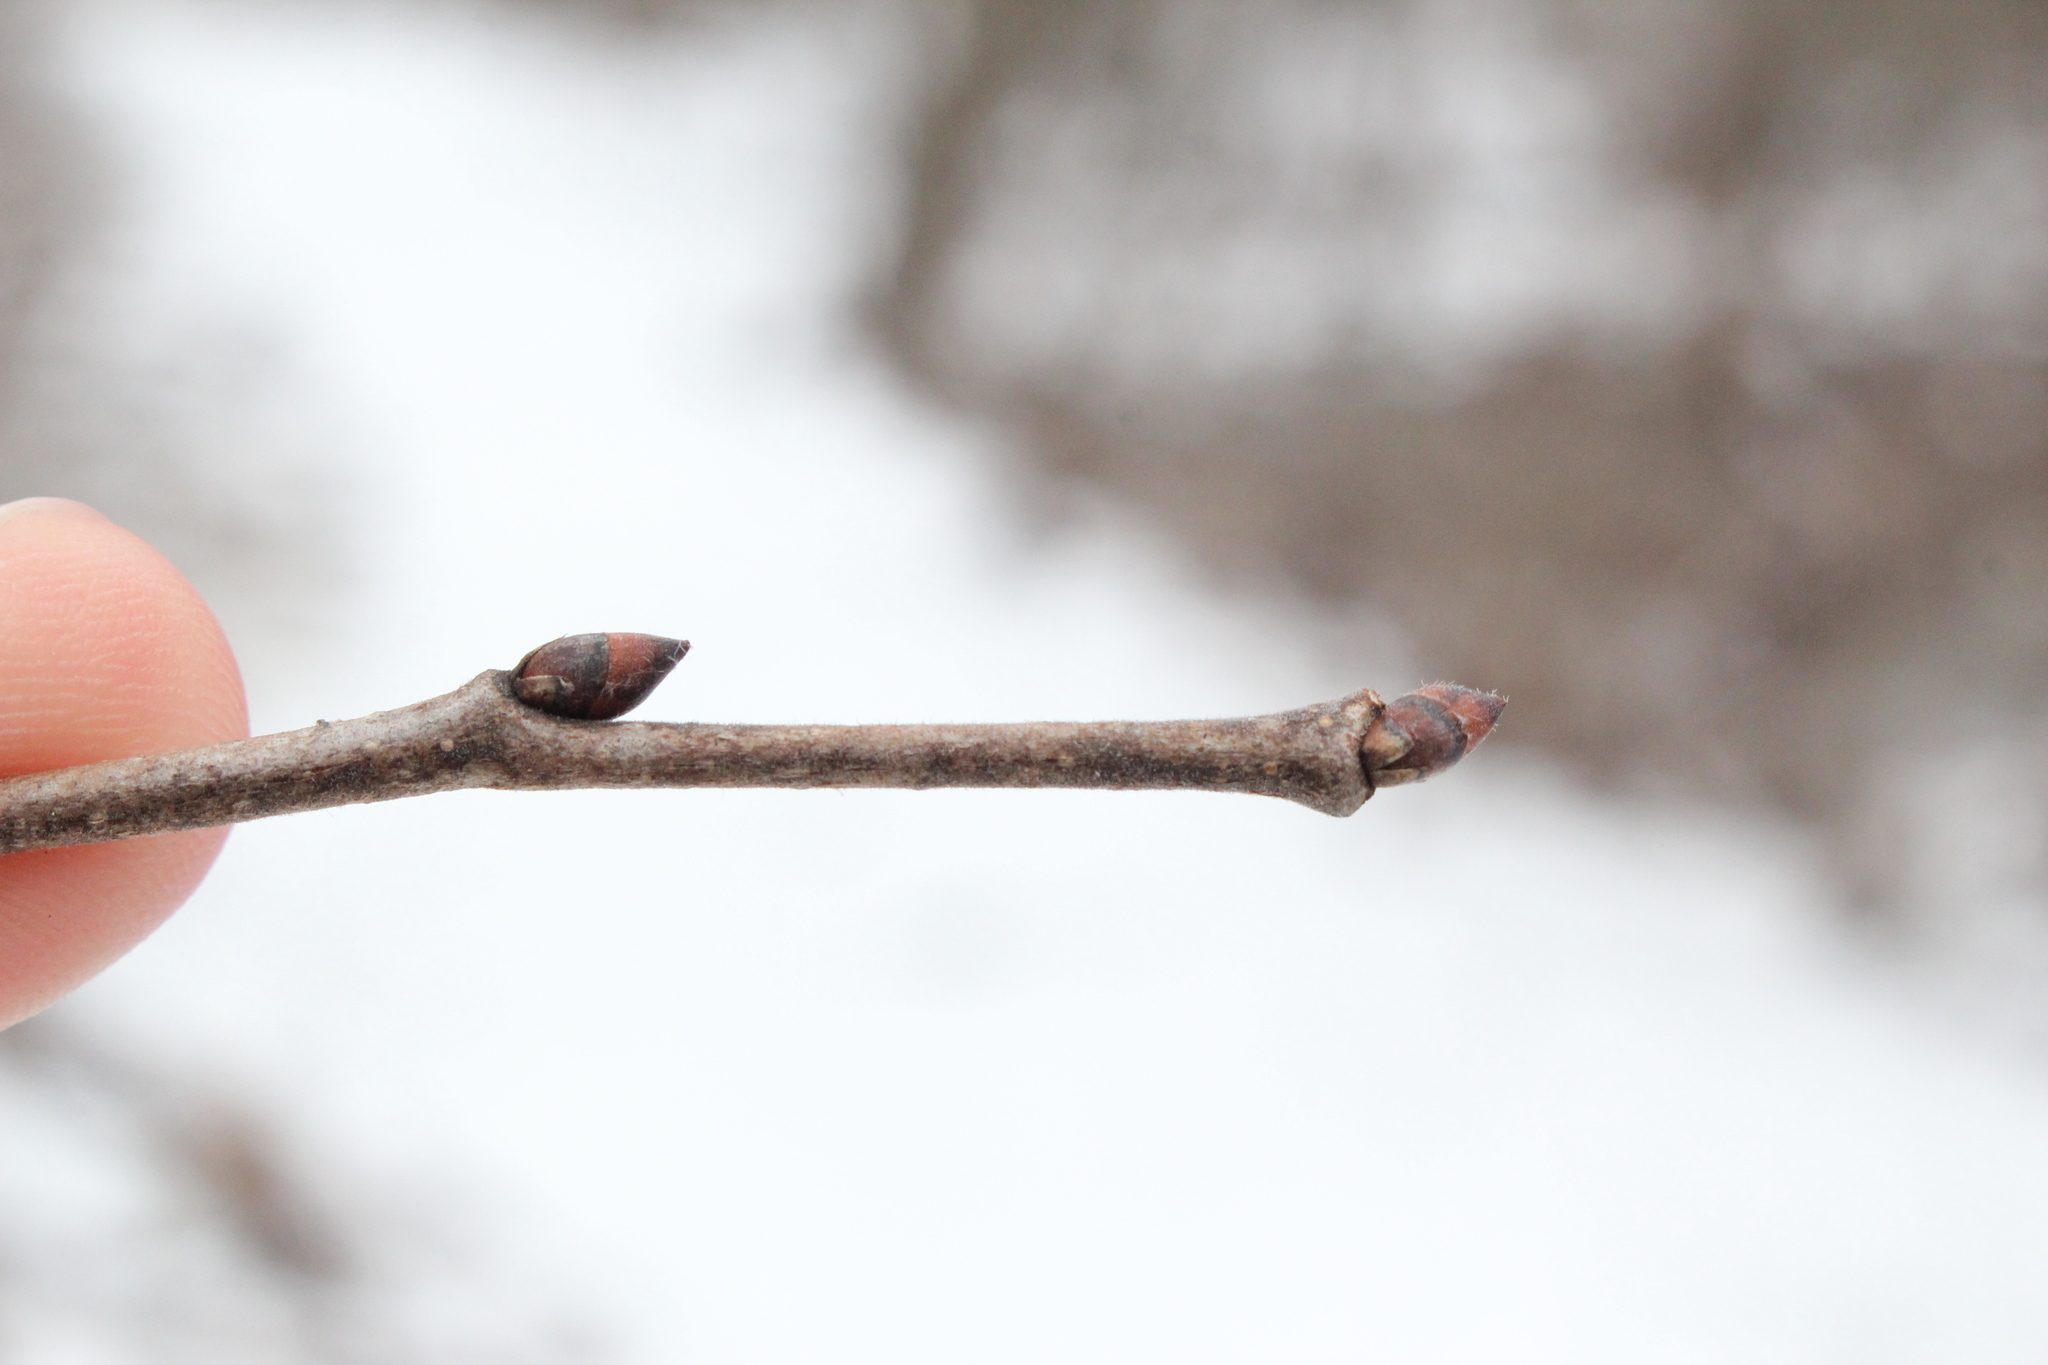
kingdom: Plantae
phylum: Tracheophyta
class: Magnoliopsida
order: Rosales
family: Ulmaceae
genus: Ulmus
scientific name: Ulmus americana
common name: American elm
